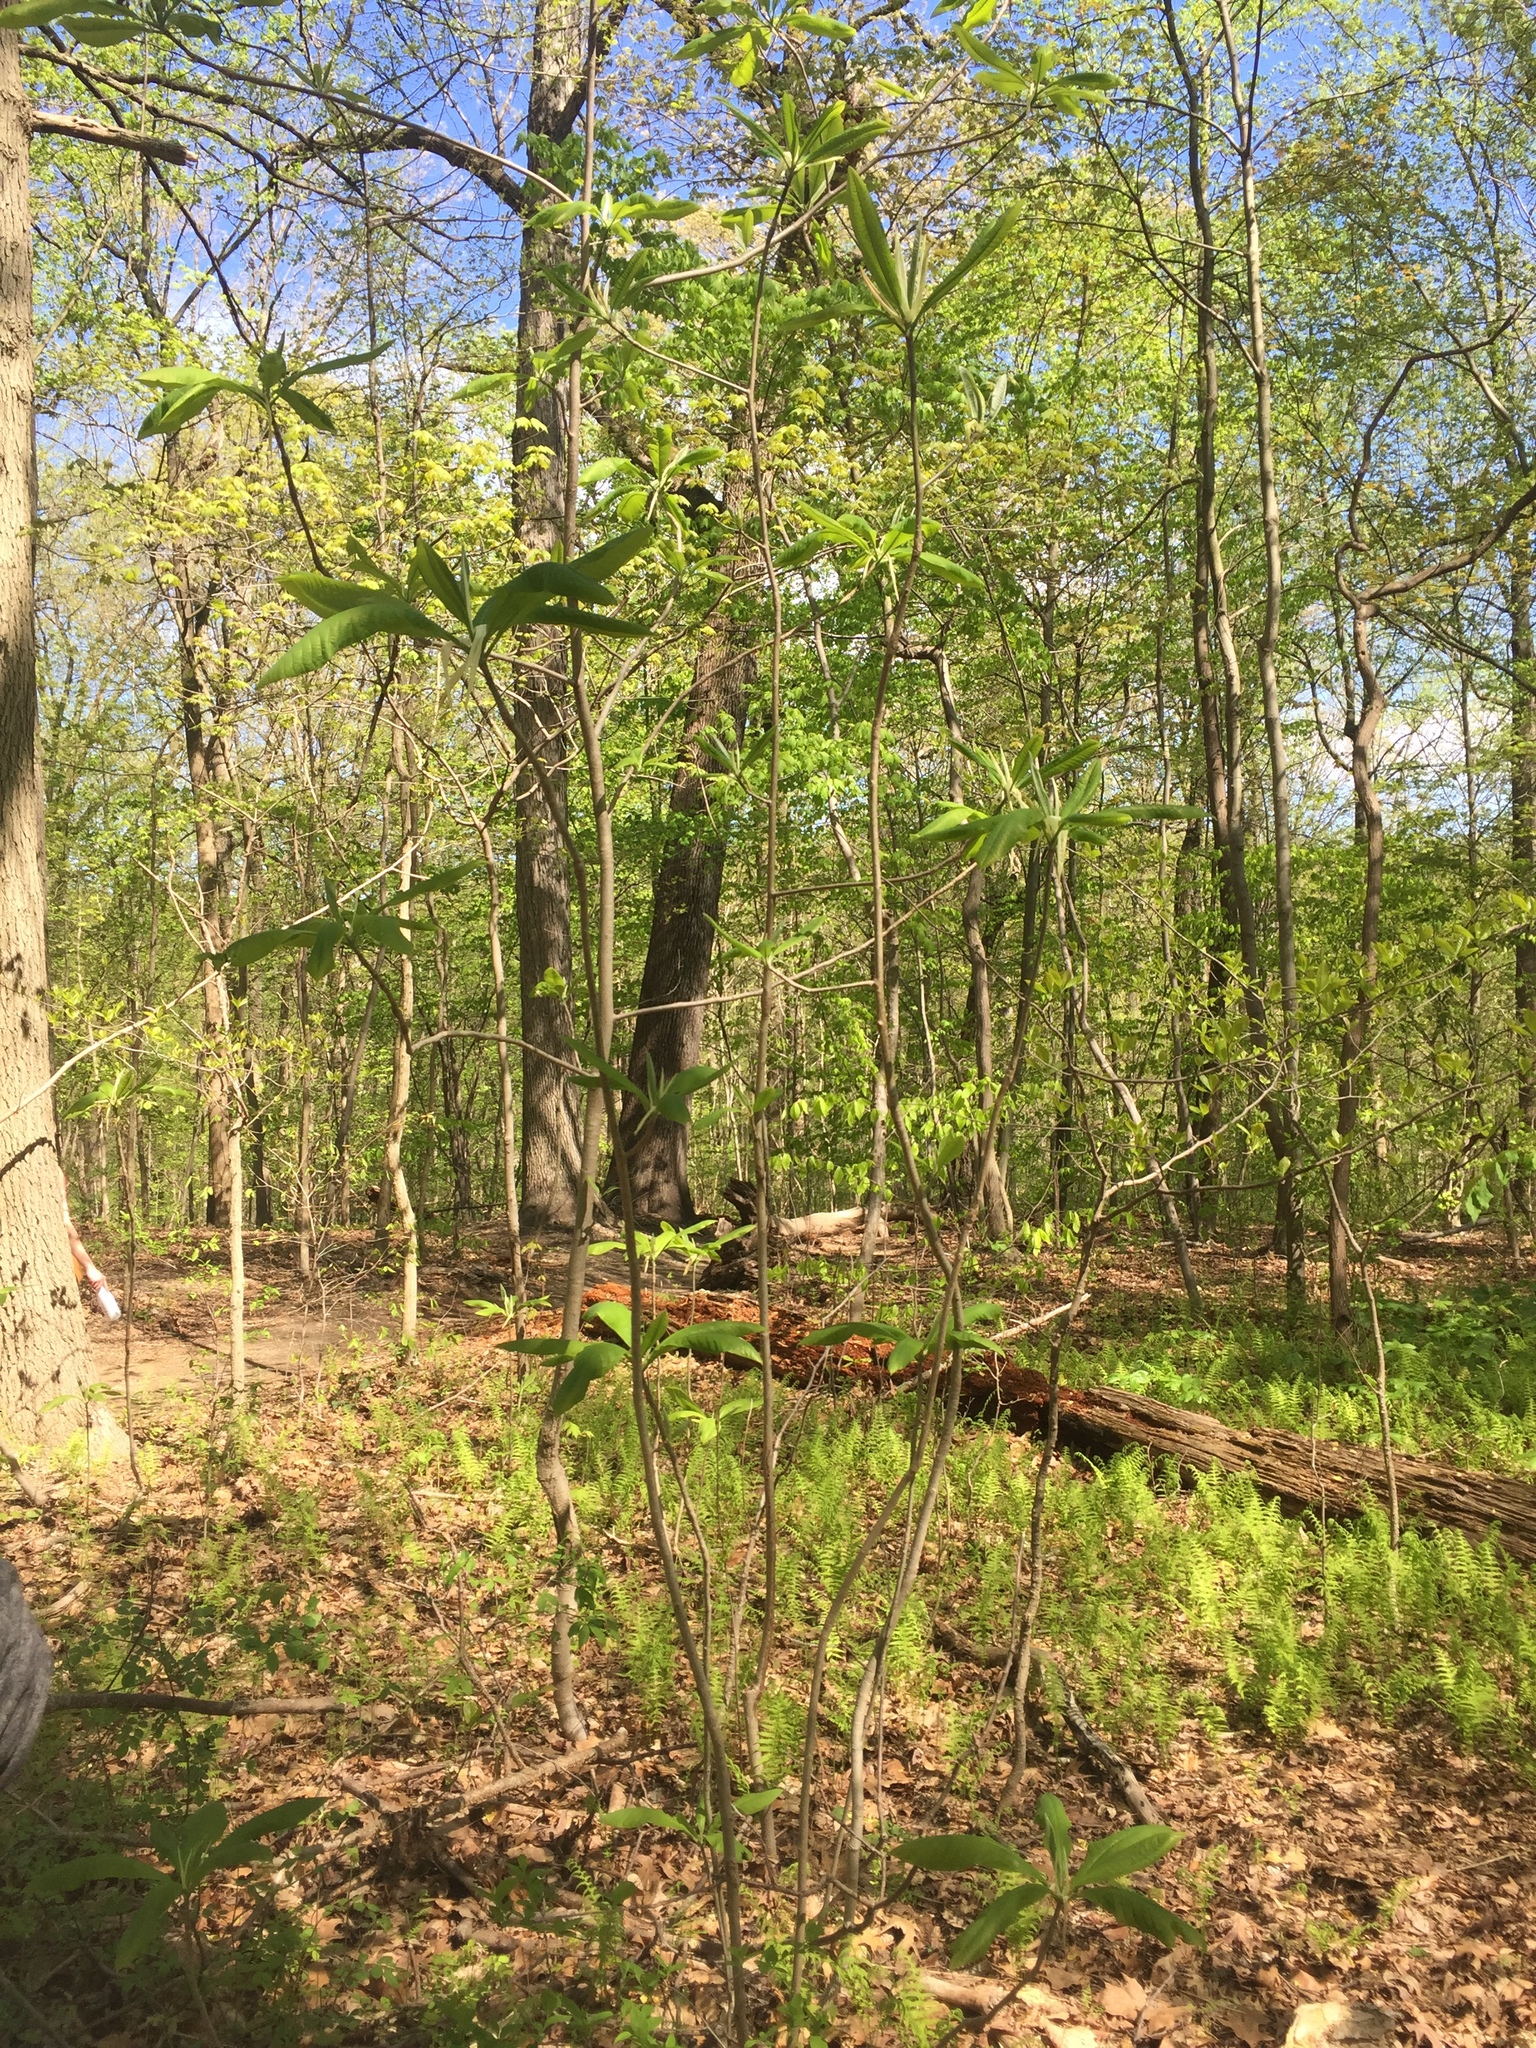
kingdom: Plantae
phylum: Tracheophyta
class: Magnoliopsida
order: Magnoliales
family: Magnoliaceae
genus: Magnolia
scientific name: Magnolia tripetala
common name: Umbrella magnolia
